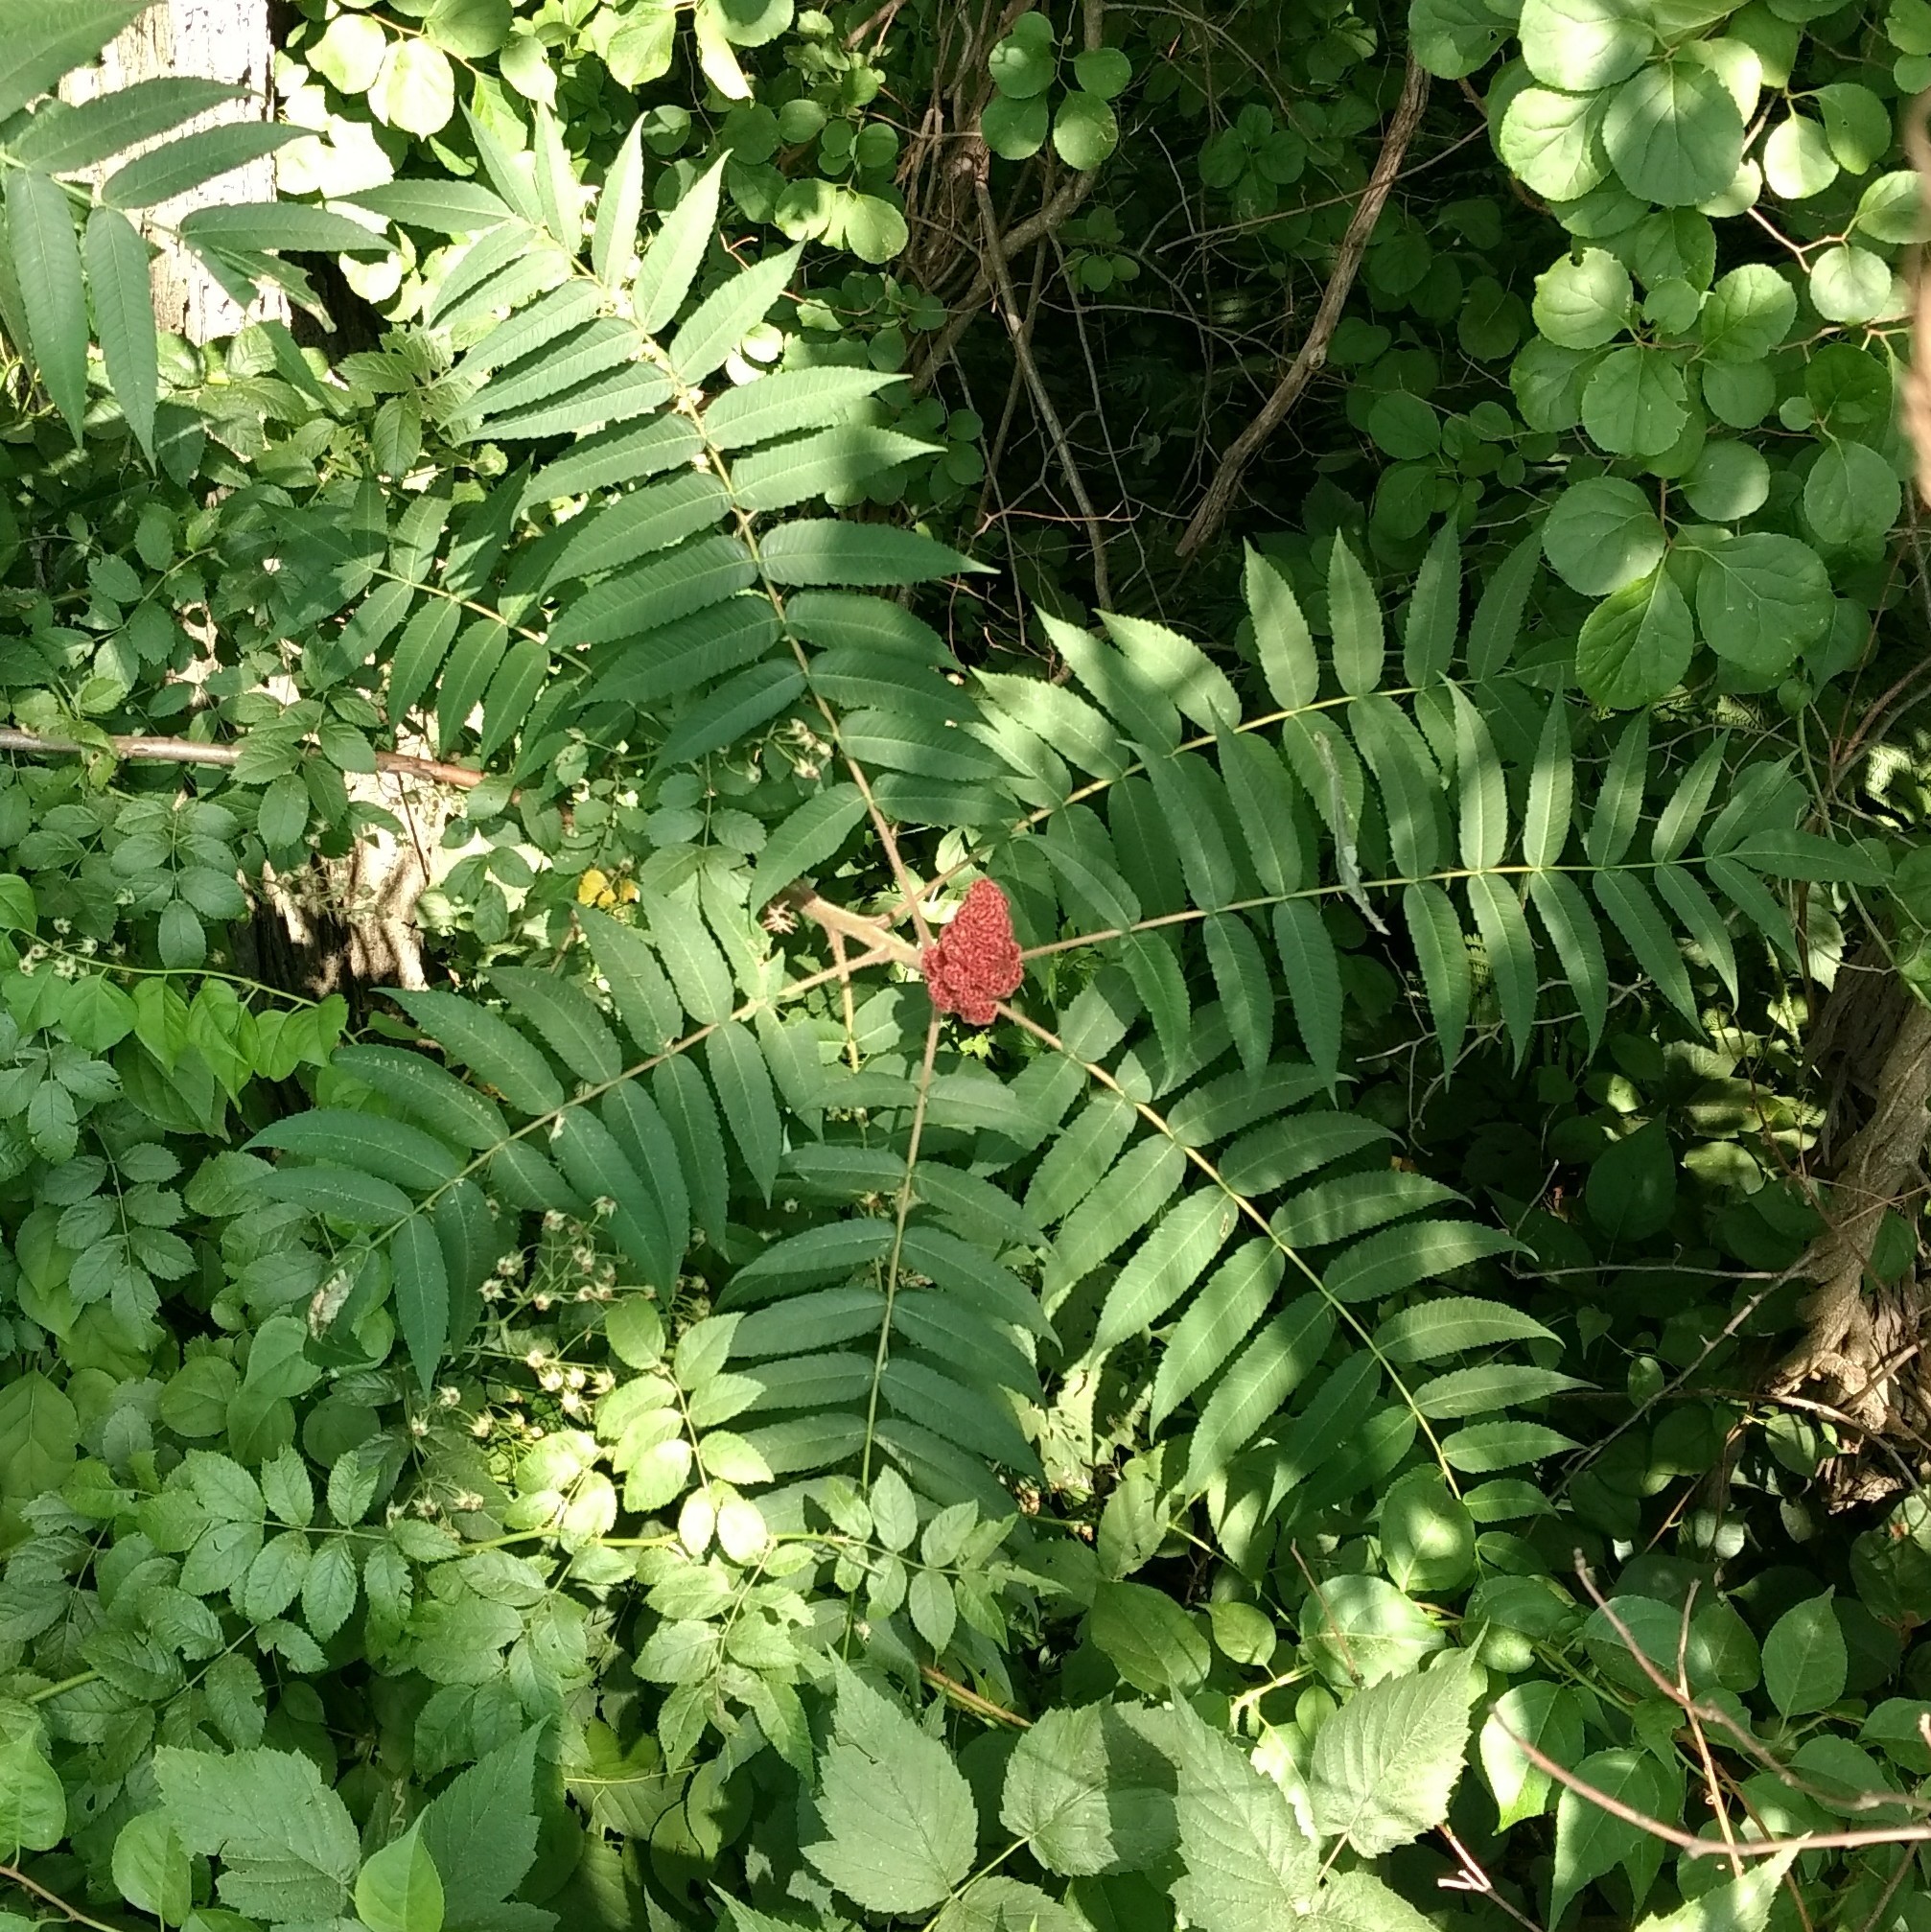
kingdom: Plantae
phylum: Tracheophyta
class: Magnoliopsida
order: Sapindales
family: Anacardiaceae
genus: Rhus
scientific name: Rhus typhina
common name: Staghorn sumac
